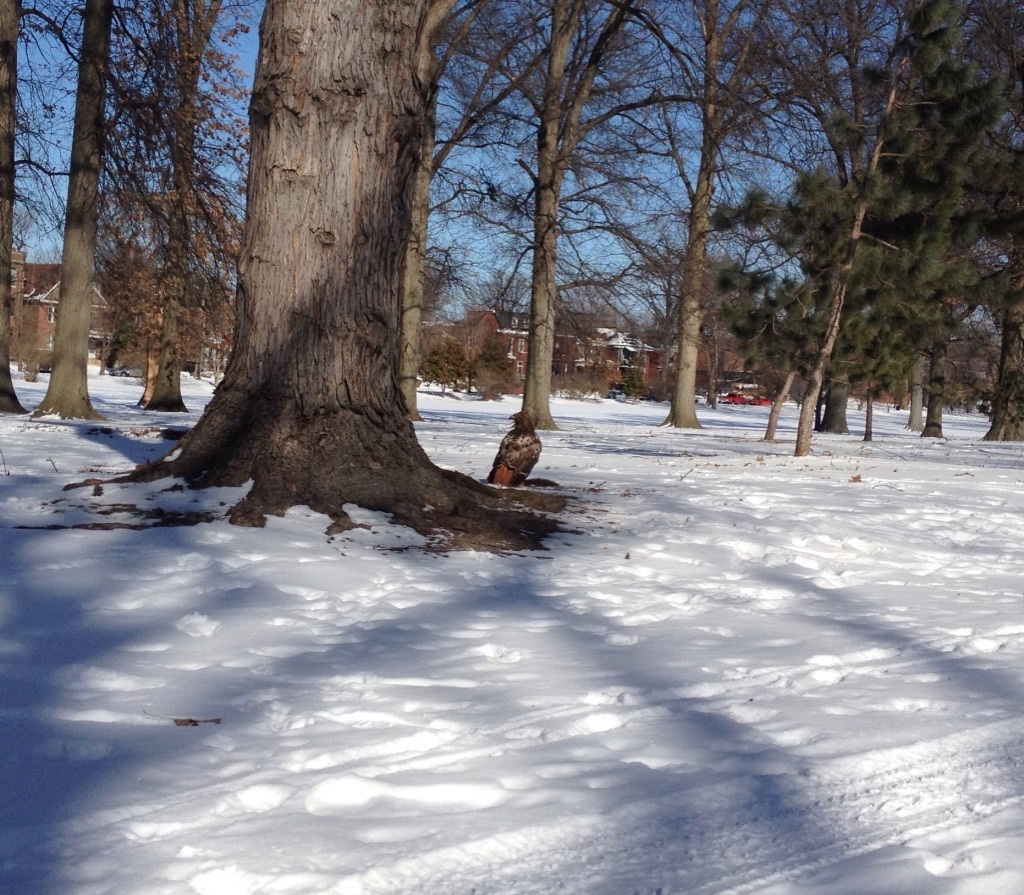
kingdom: Animalia
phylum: Chordata
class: Aves
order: Accipitriformes
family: Accipitridae
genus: Buteo
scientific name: Buteo jamaicensis
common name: Red-tailed hawk
